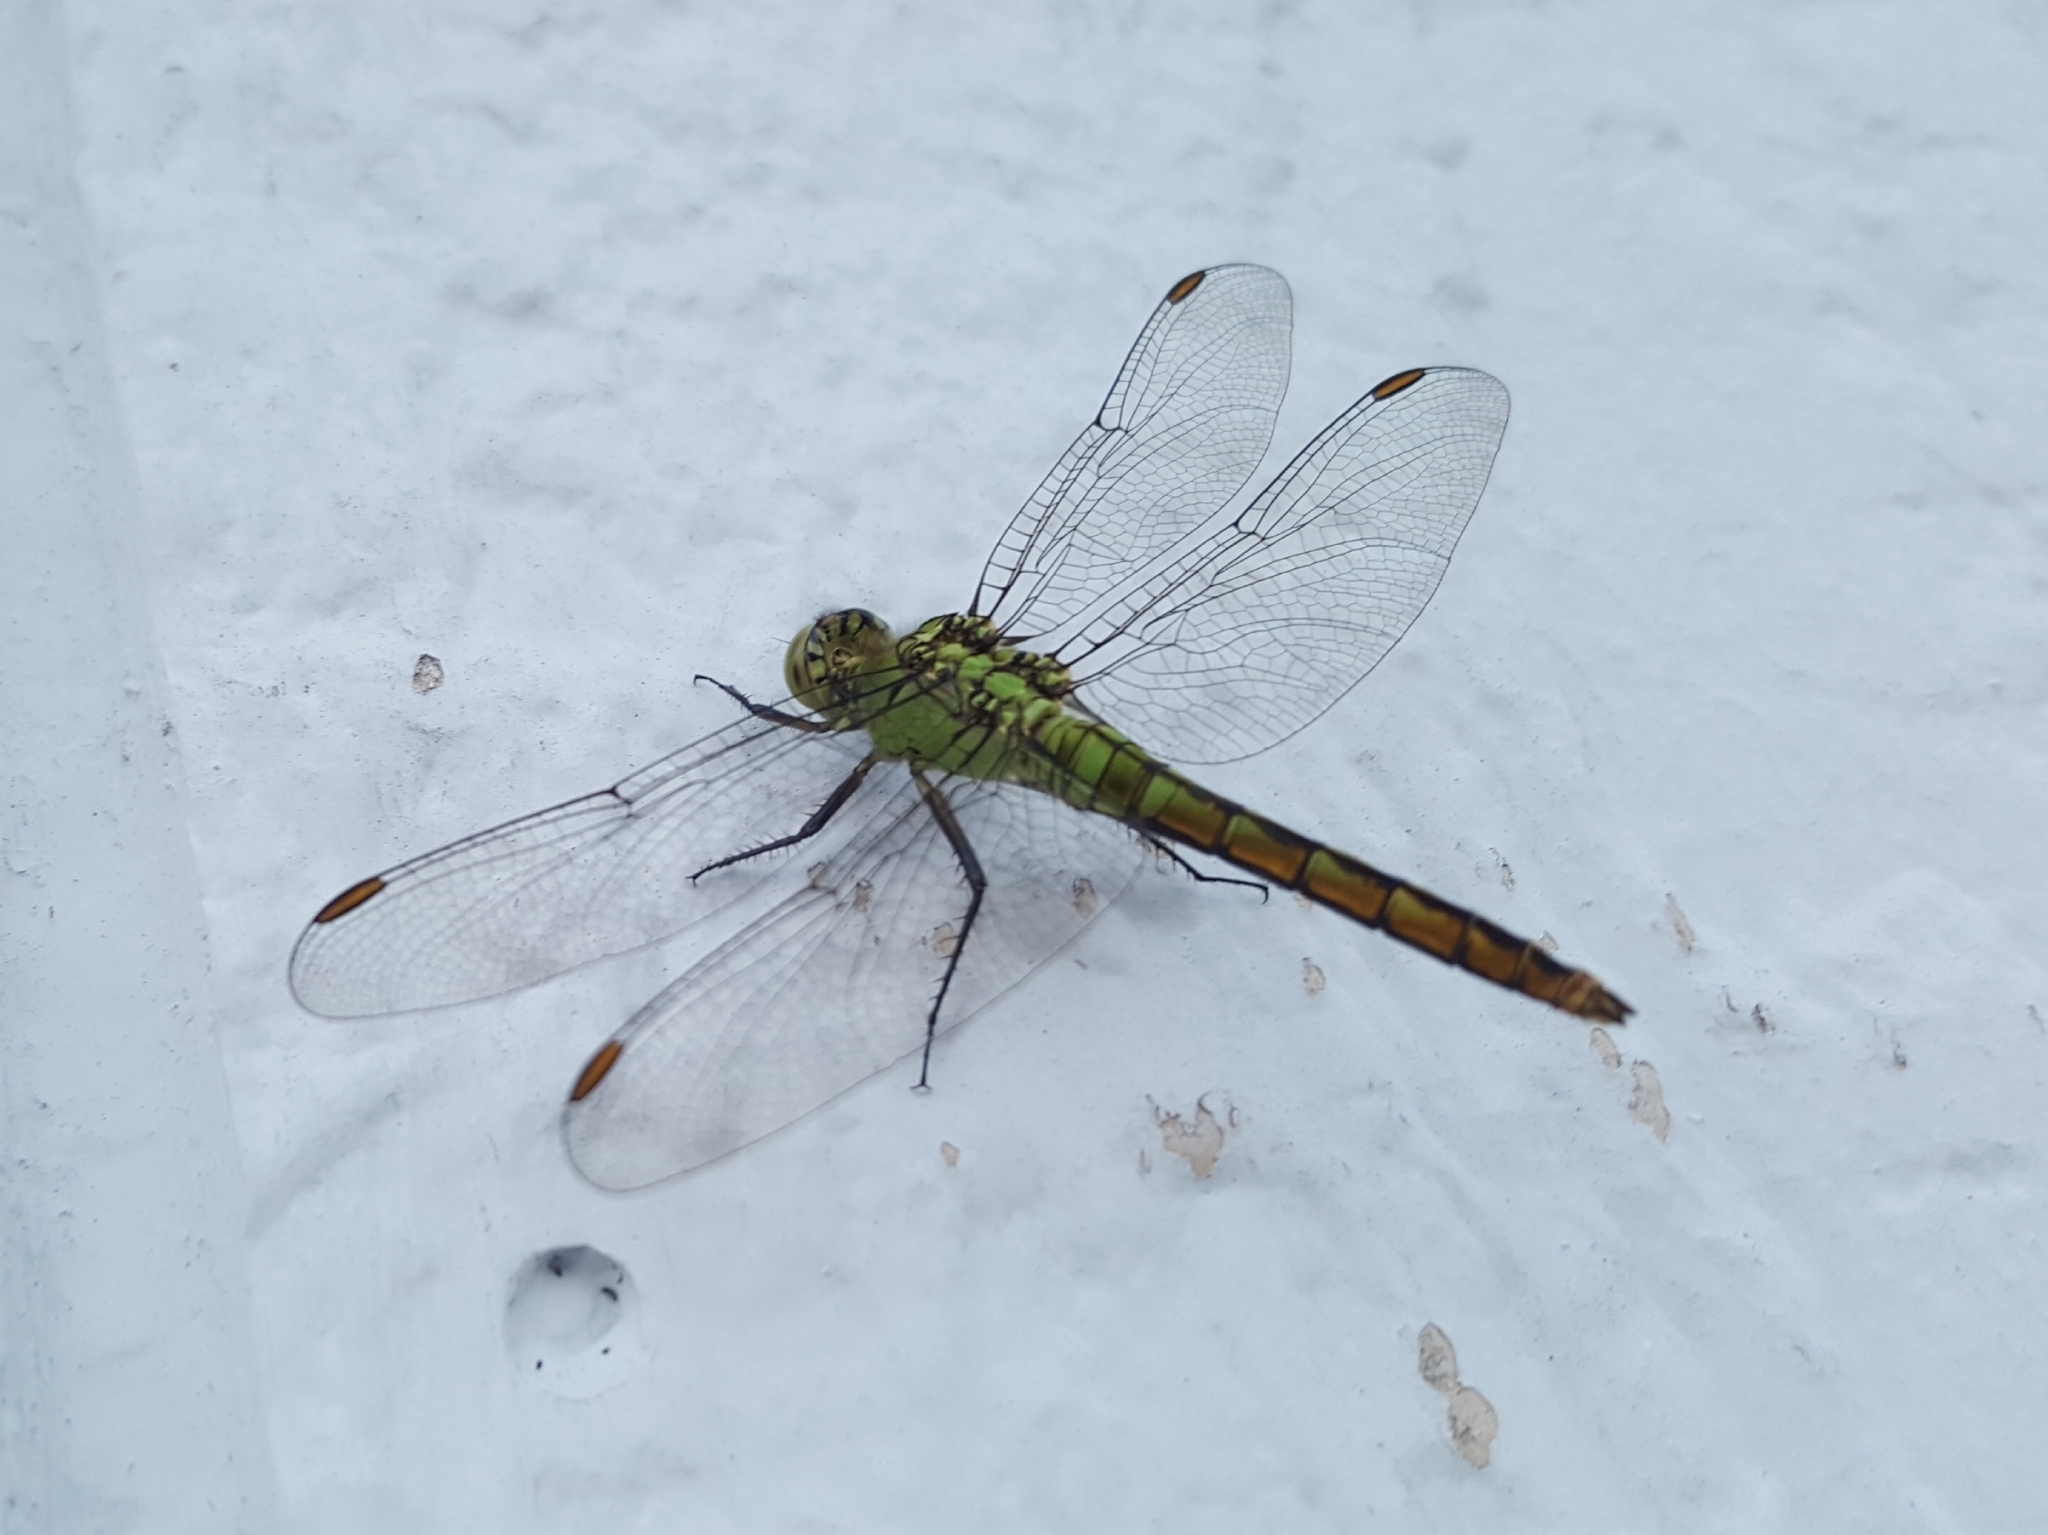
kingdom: Animalia
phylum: Arthropoda
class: Insecta
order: Odonata
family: Libellulidae
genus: Erythemis
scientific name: Erythemis collocata
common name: Western pondhawk
